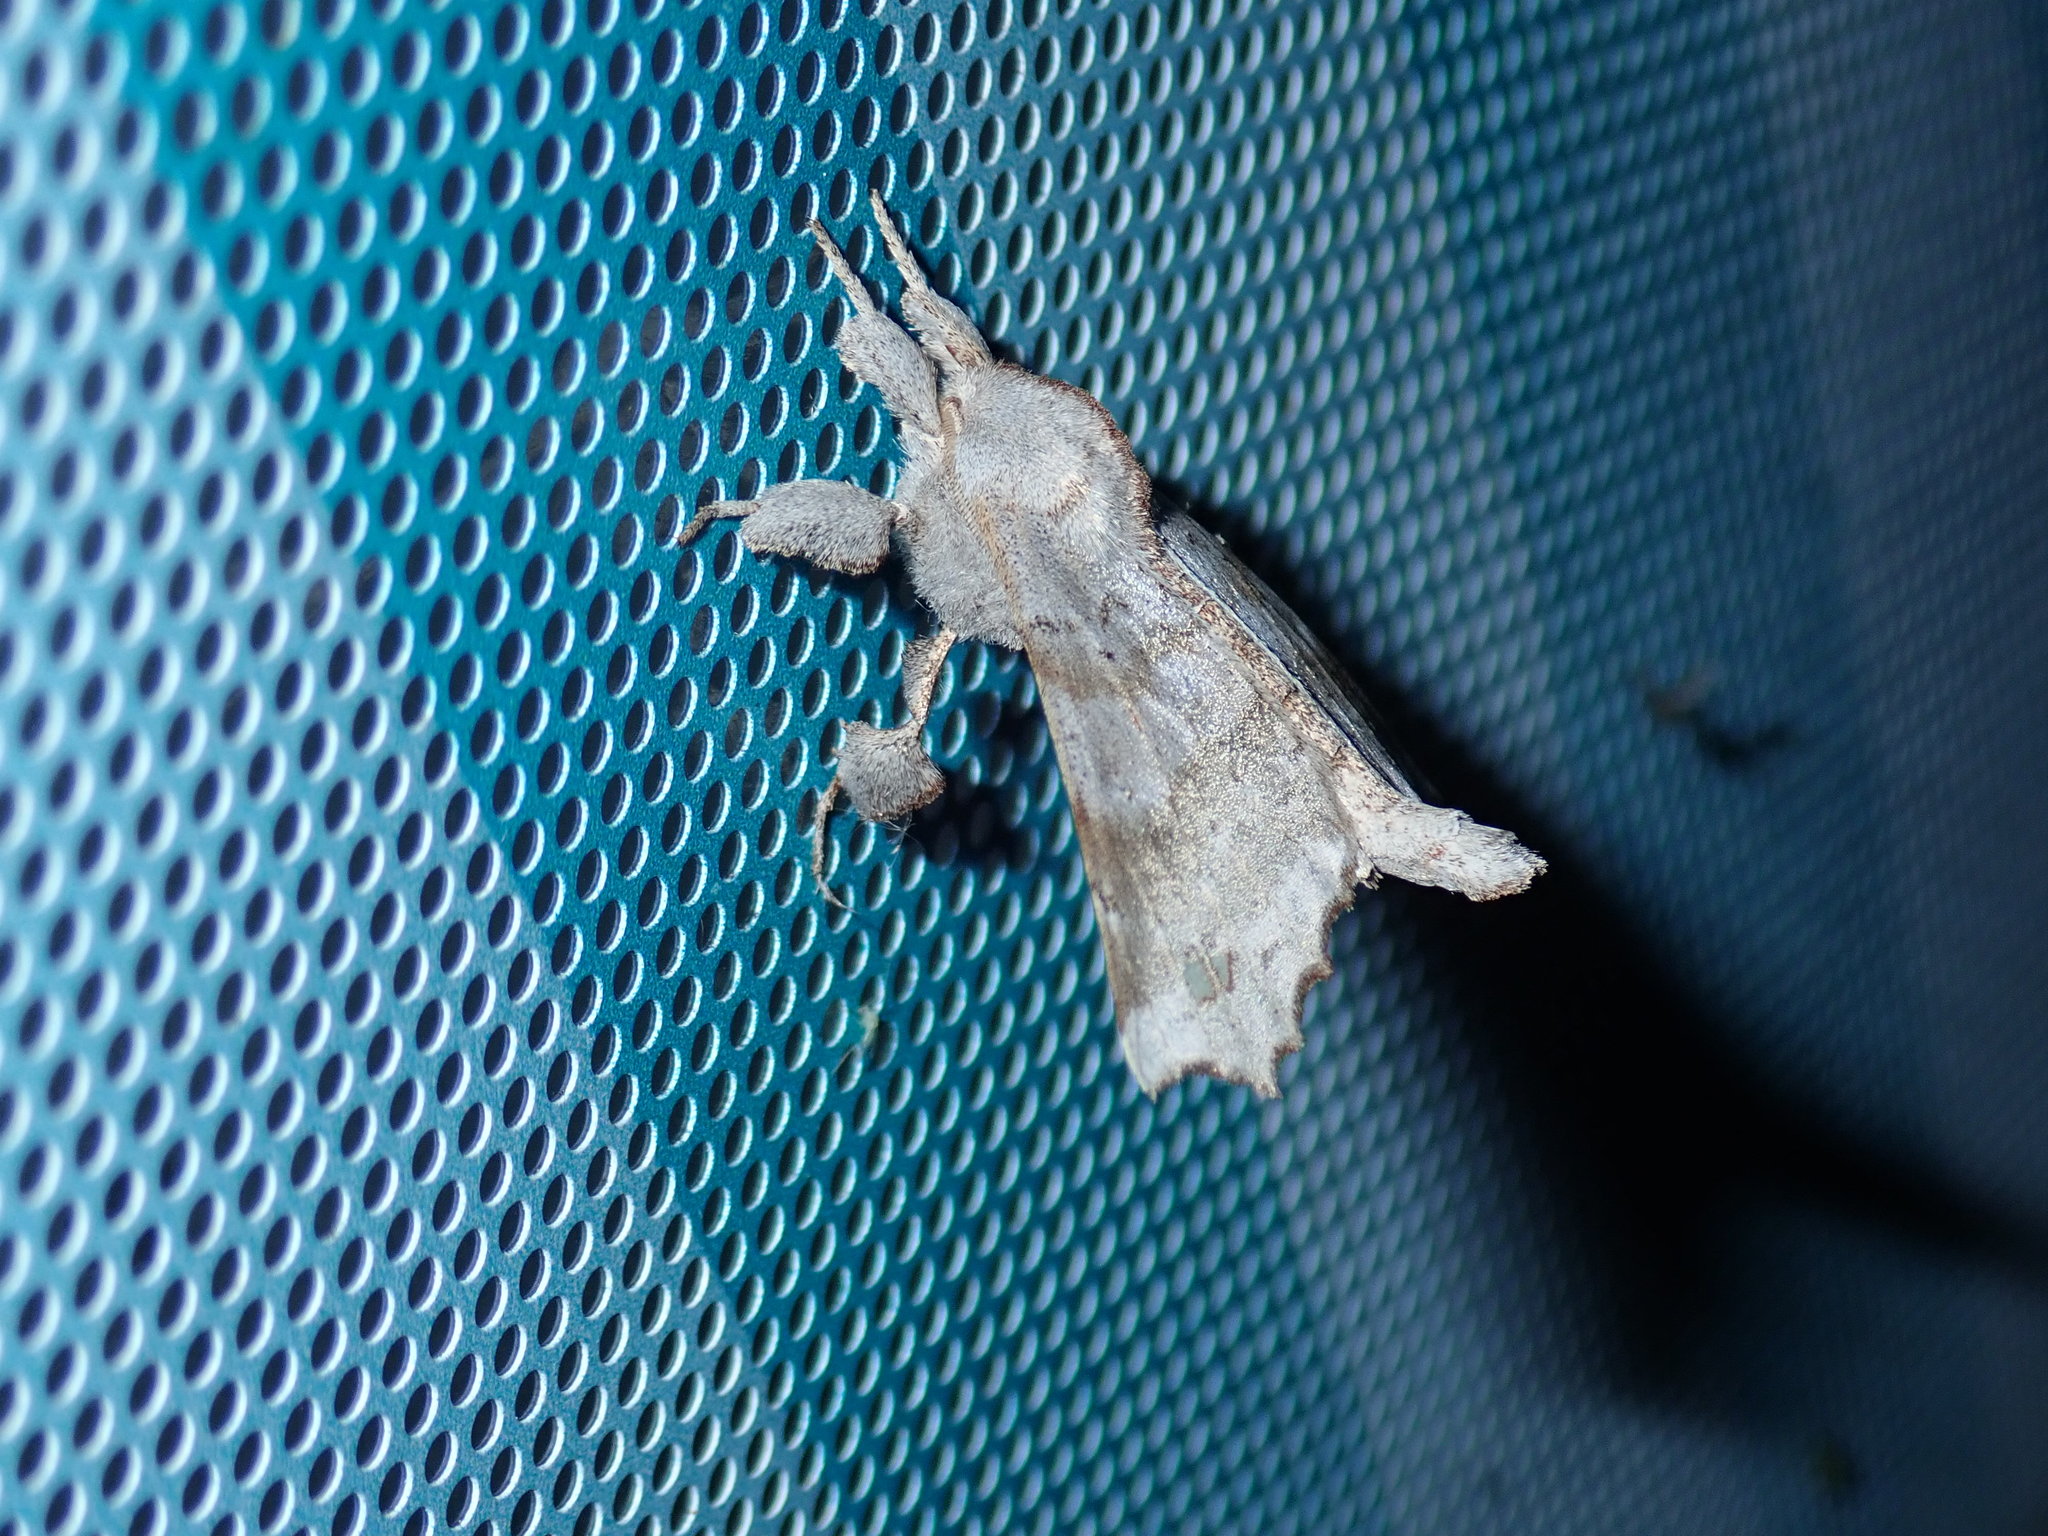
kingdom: Animalia
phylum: Arthropoda
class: Insecta
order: Lepidoptera
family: Apatelodidae
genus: Olceclostera
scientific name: Olceclostera angelica
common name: Angel moth
